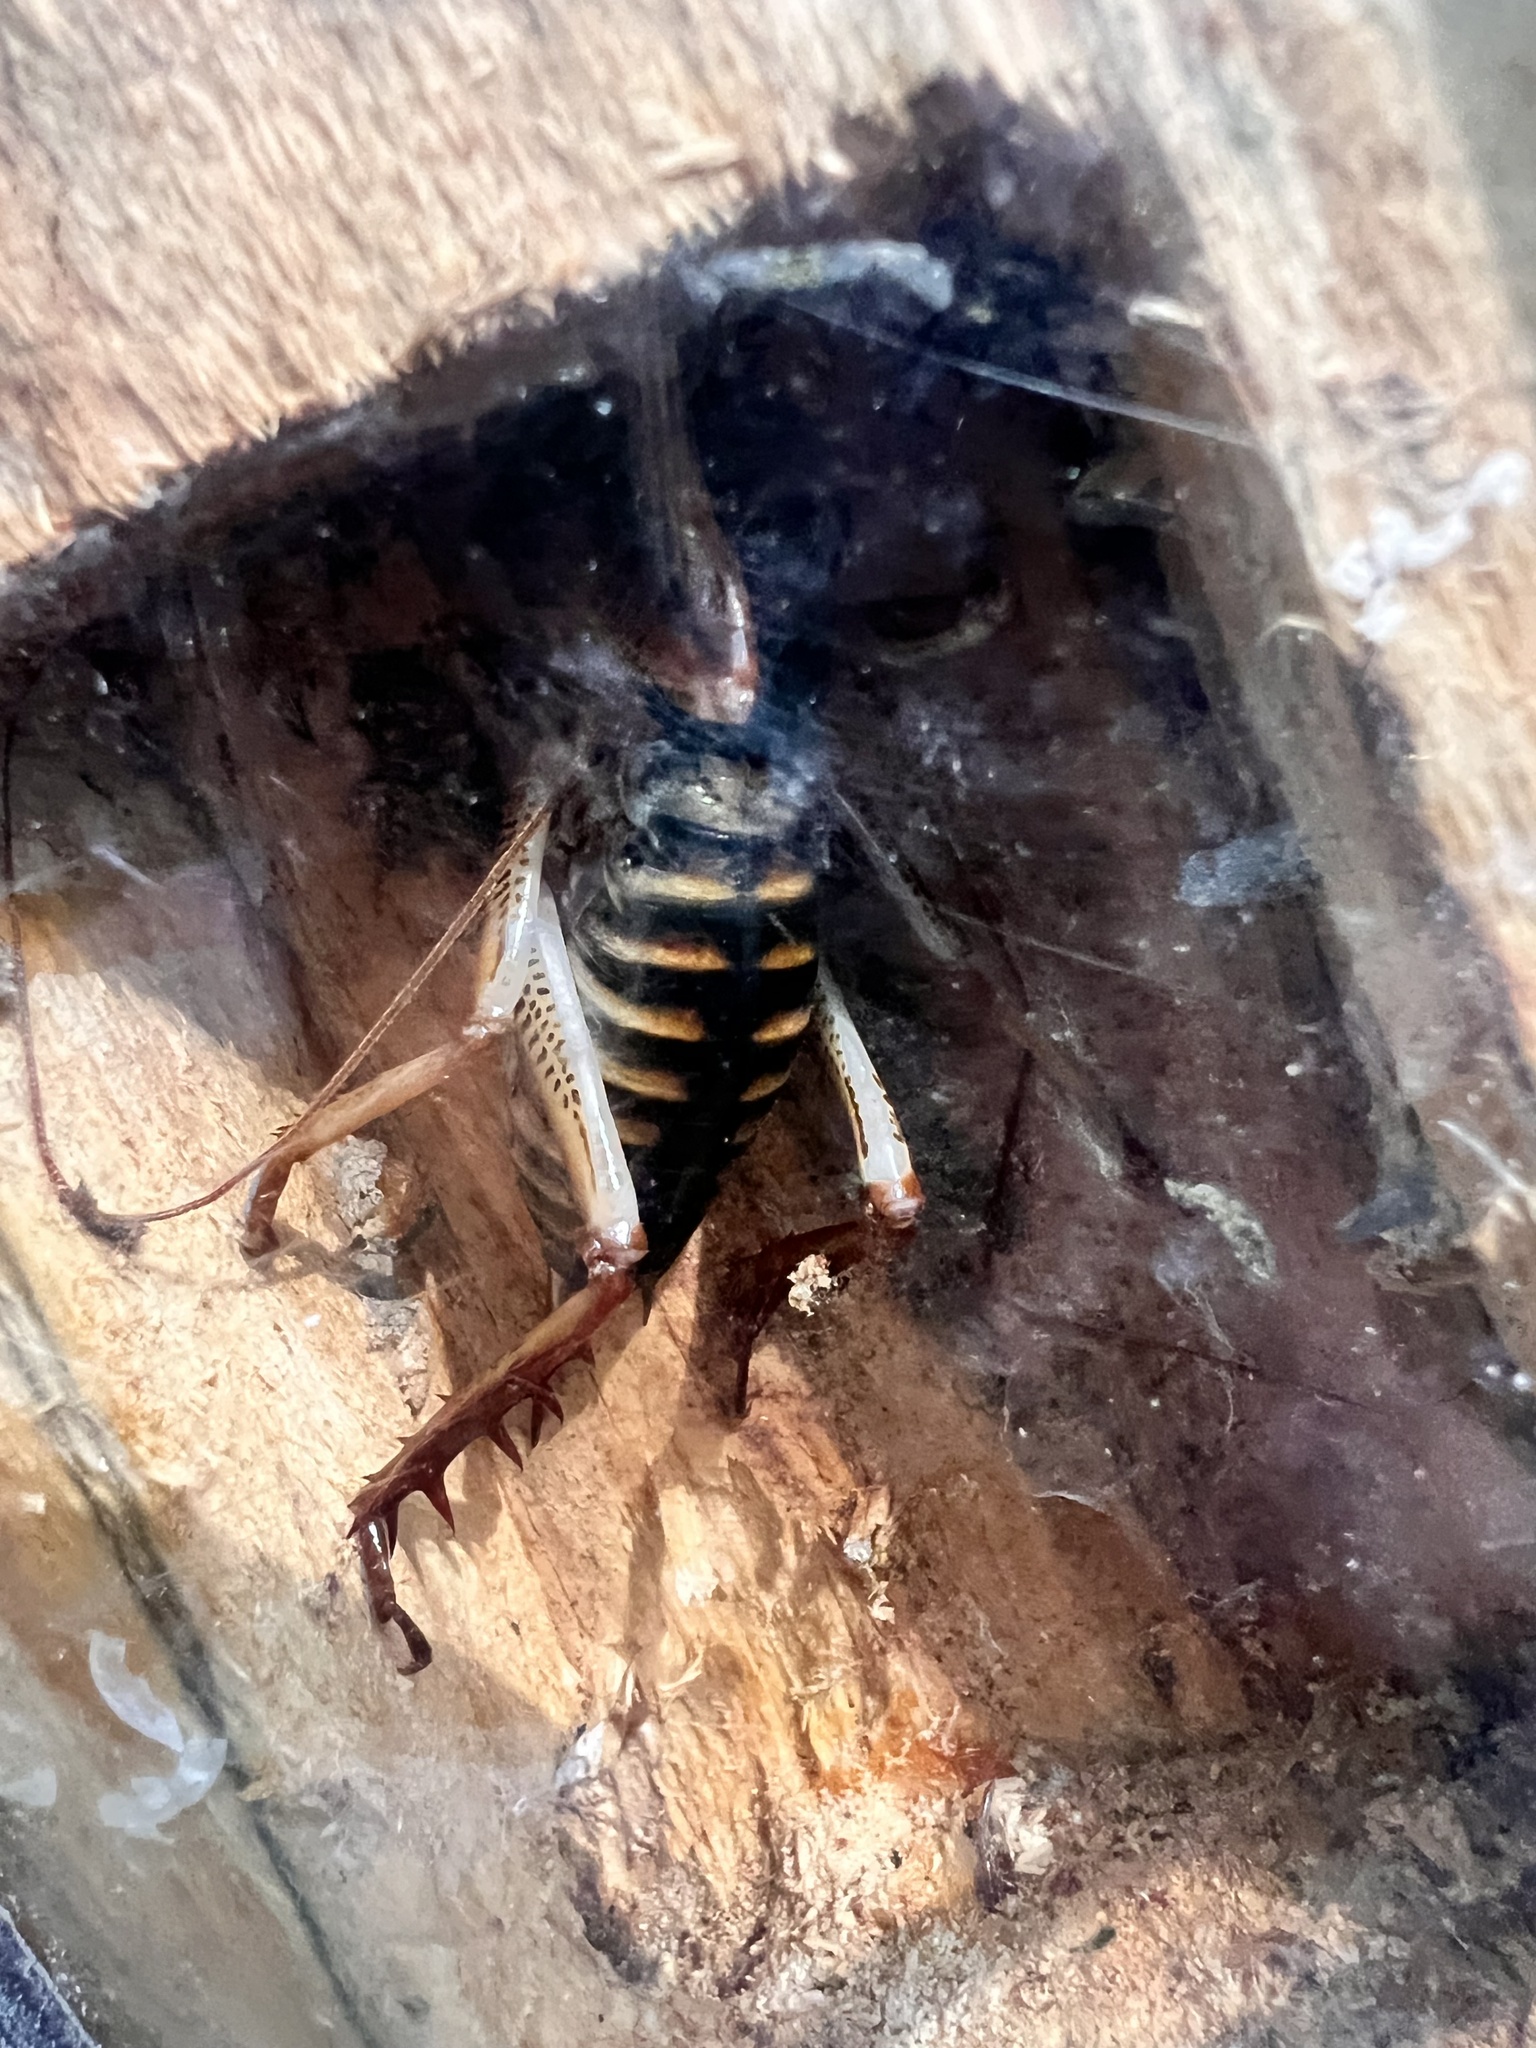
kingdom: Animalia
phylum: Arthropoda
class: Insecta
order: Orthoptera
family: Anostostomatidae
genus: Hemideina
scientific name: Hemideina crassidens
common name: Wellington tree weta
